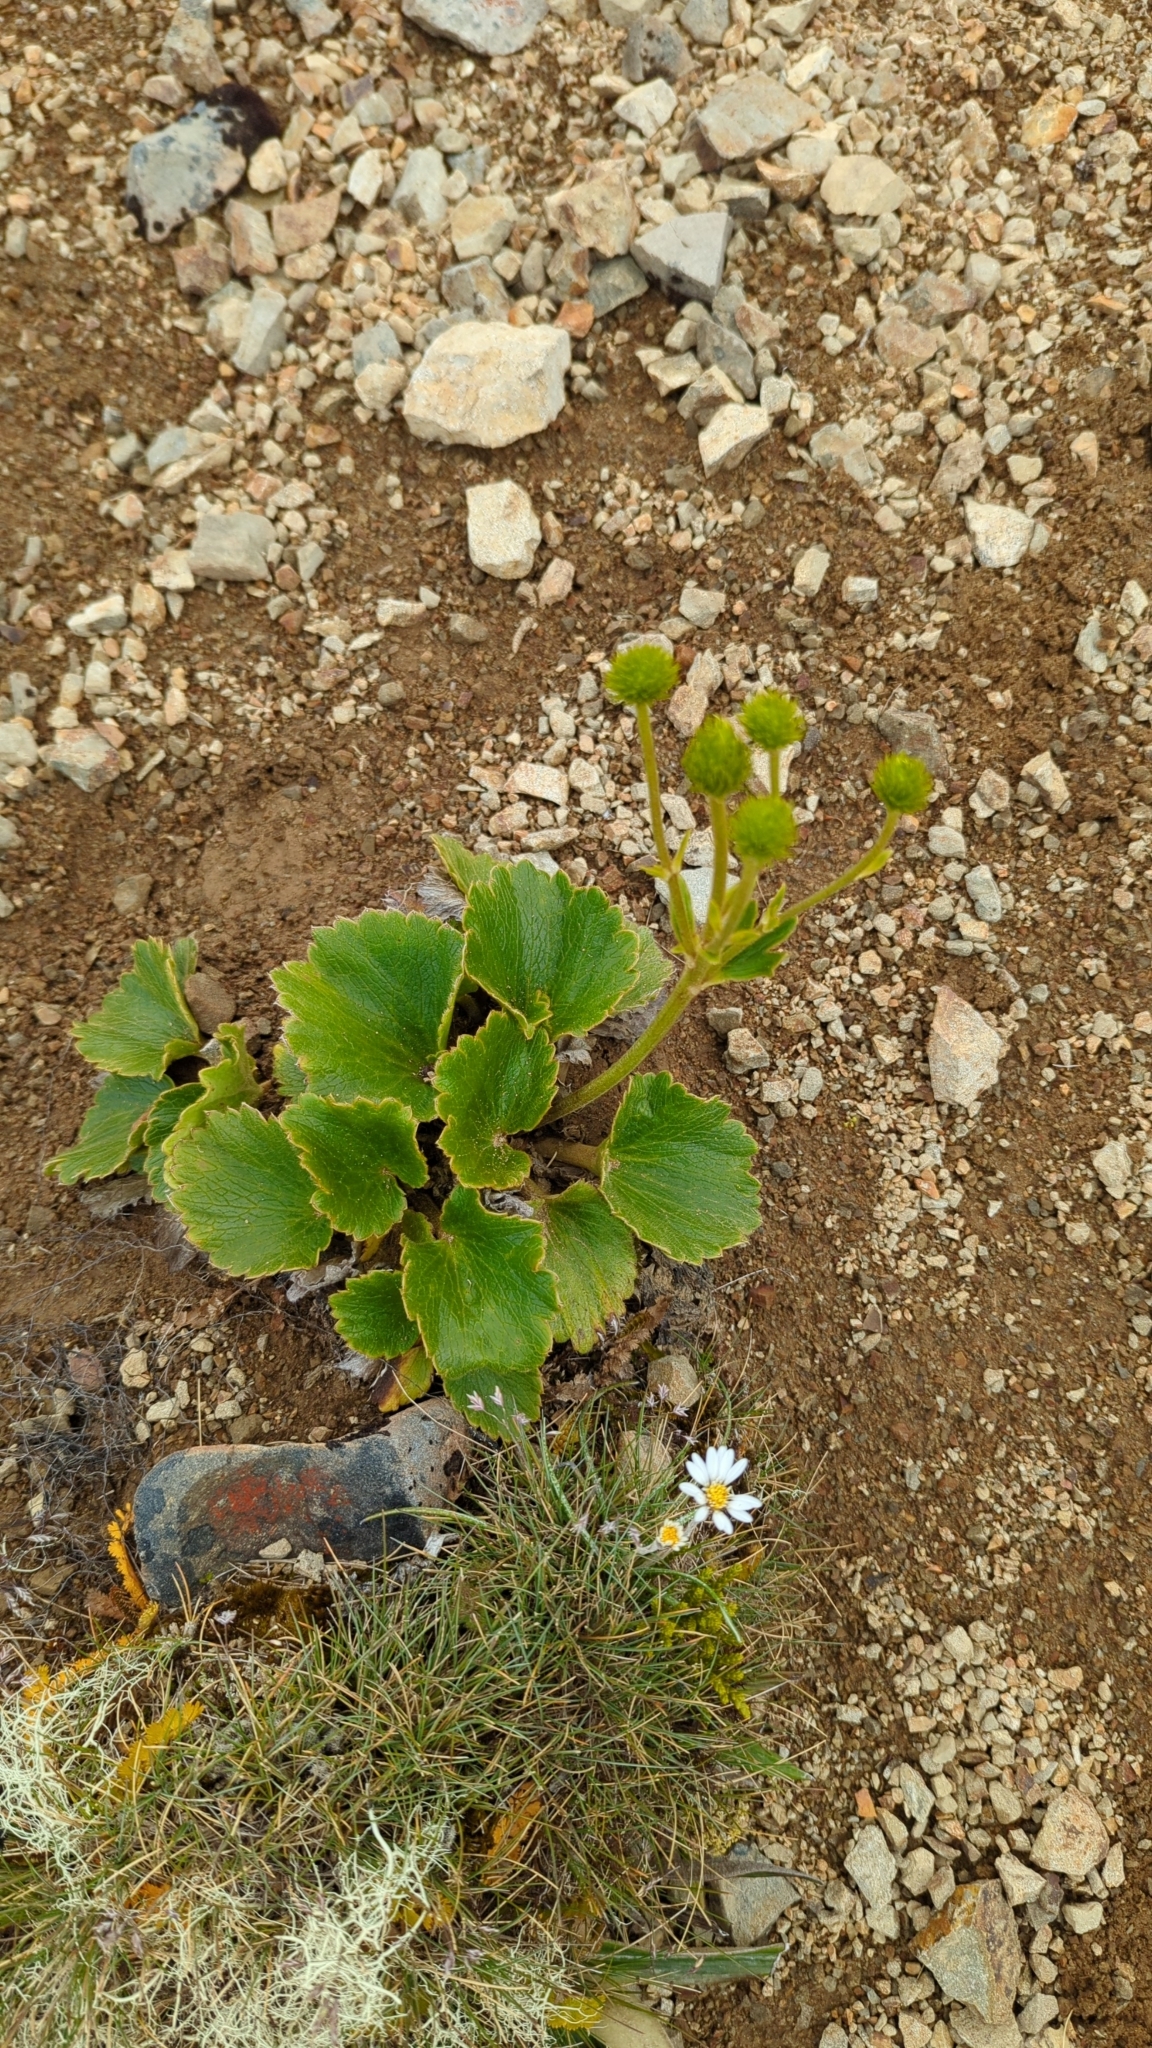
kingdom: Plantae
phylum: Tracheophyta
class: Magnoliopsida
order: Ranunculales
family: Ranunculaceae
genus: Ranunculus
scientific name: Ranunculus insignis
